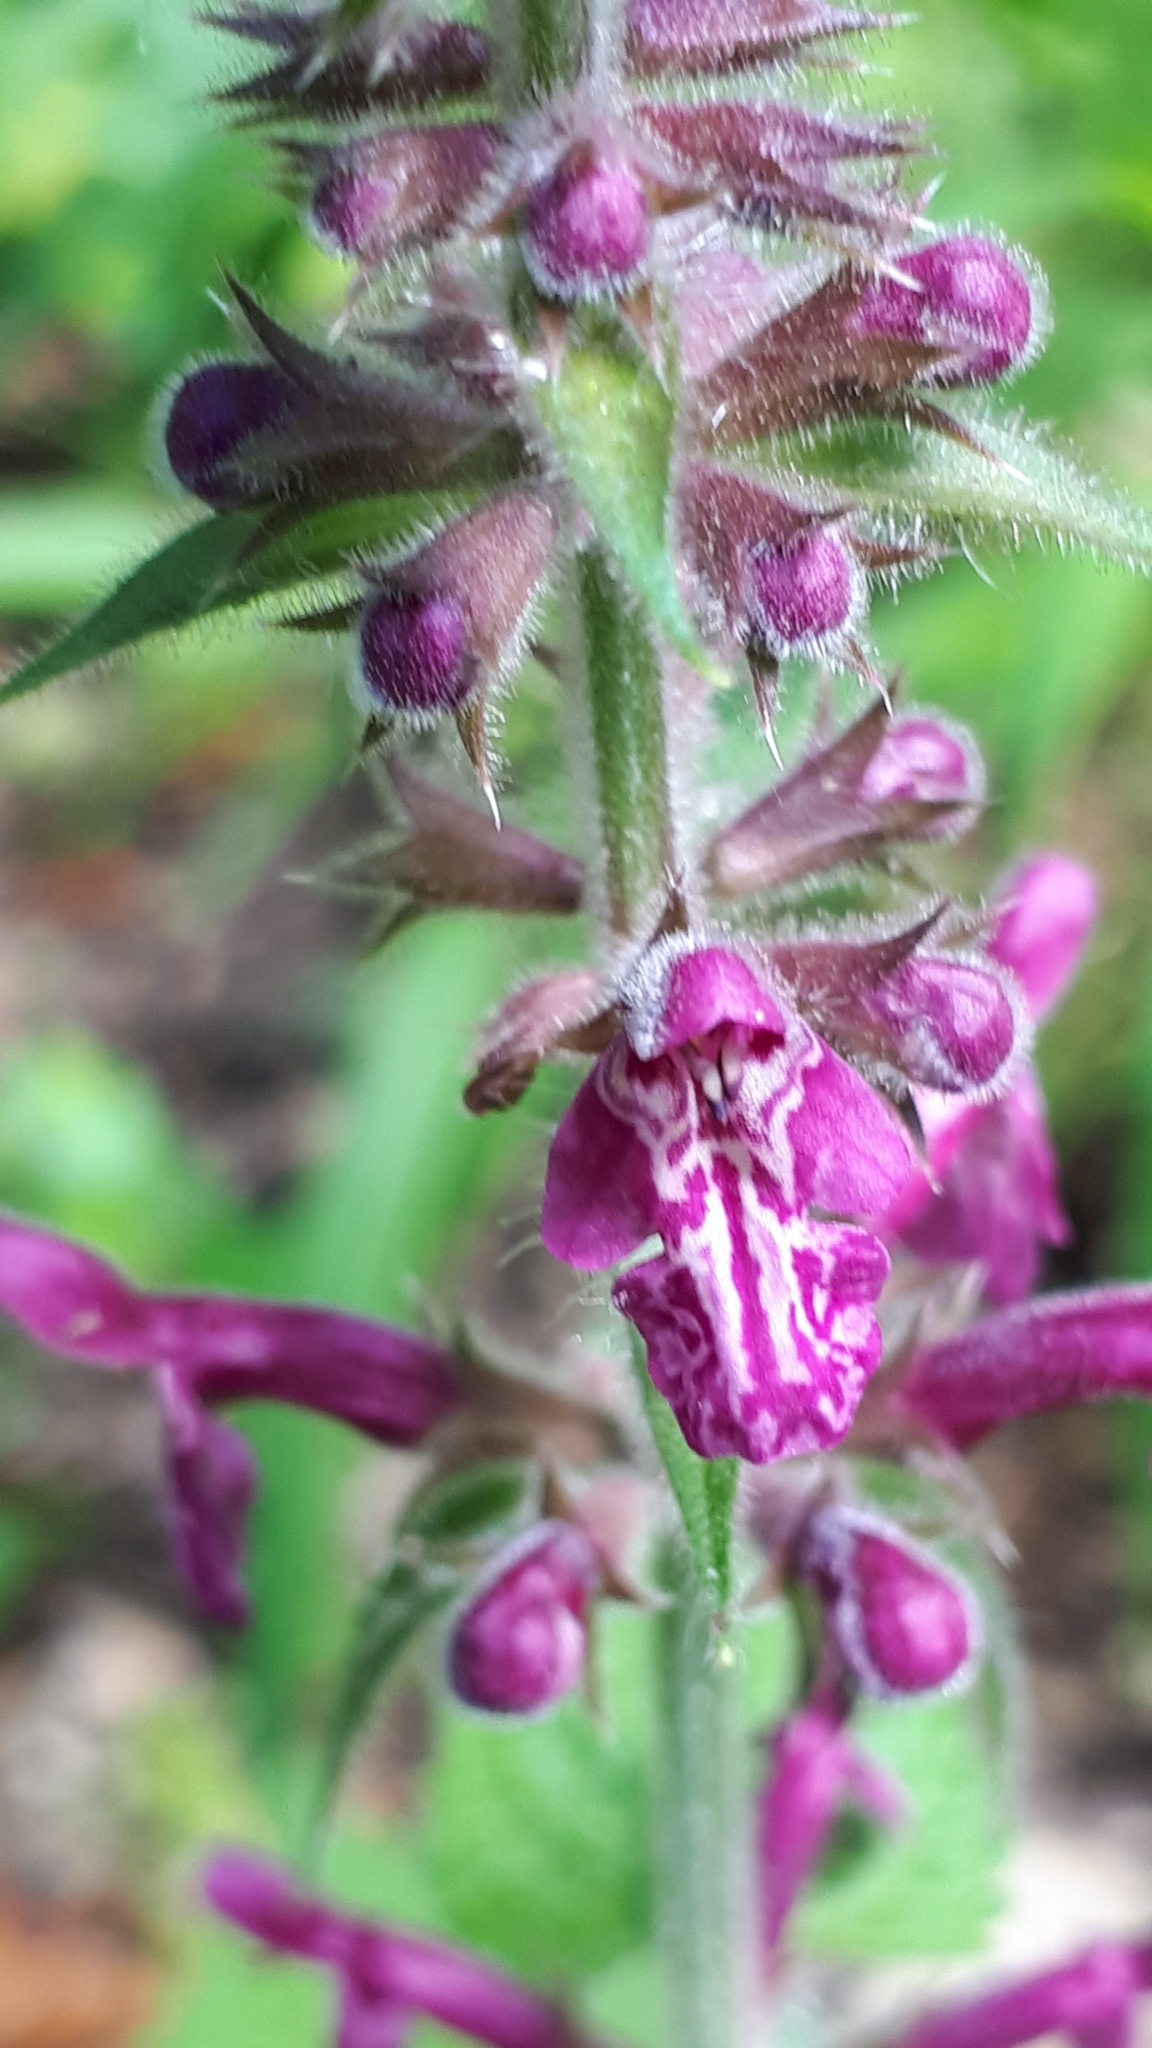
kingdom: Plantae
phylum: Tracheophyta
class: Magnoliopsida
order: Lamiales
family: Lamiaceae
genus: Stachys
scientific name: Stachys sylvatica
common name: Hedge woundwort
